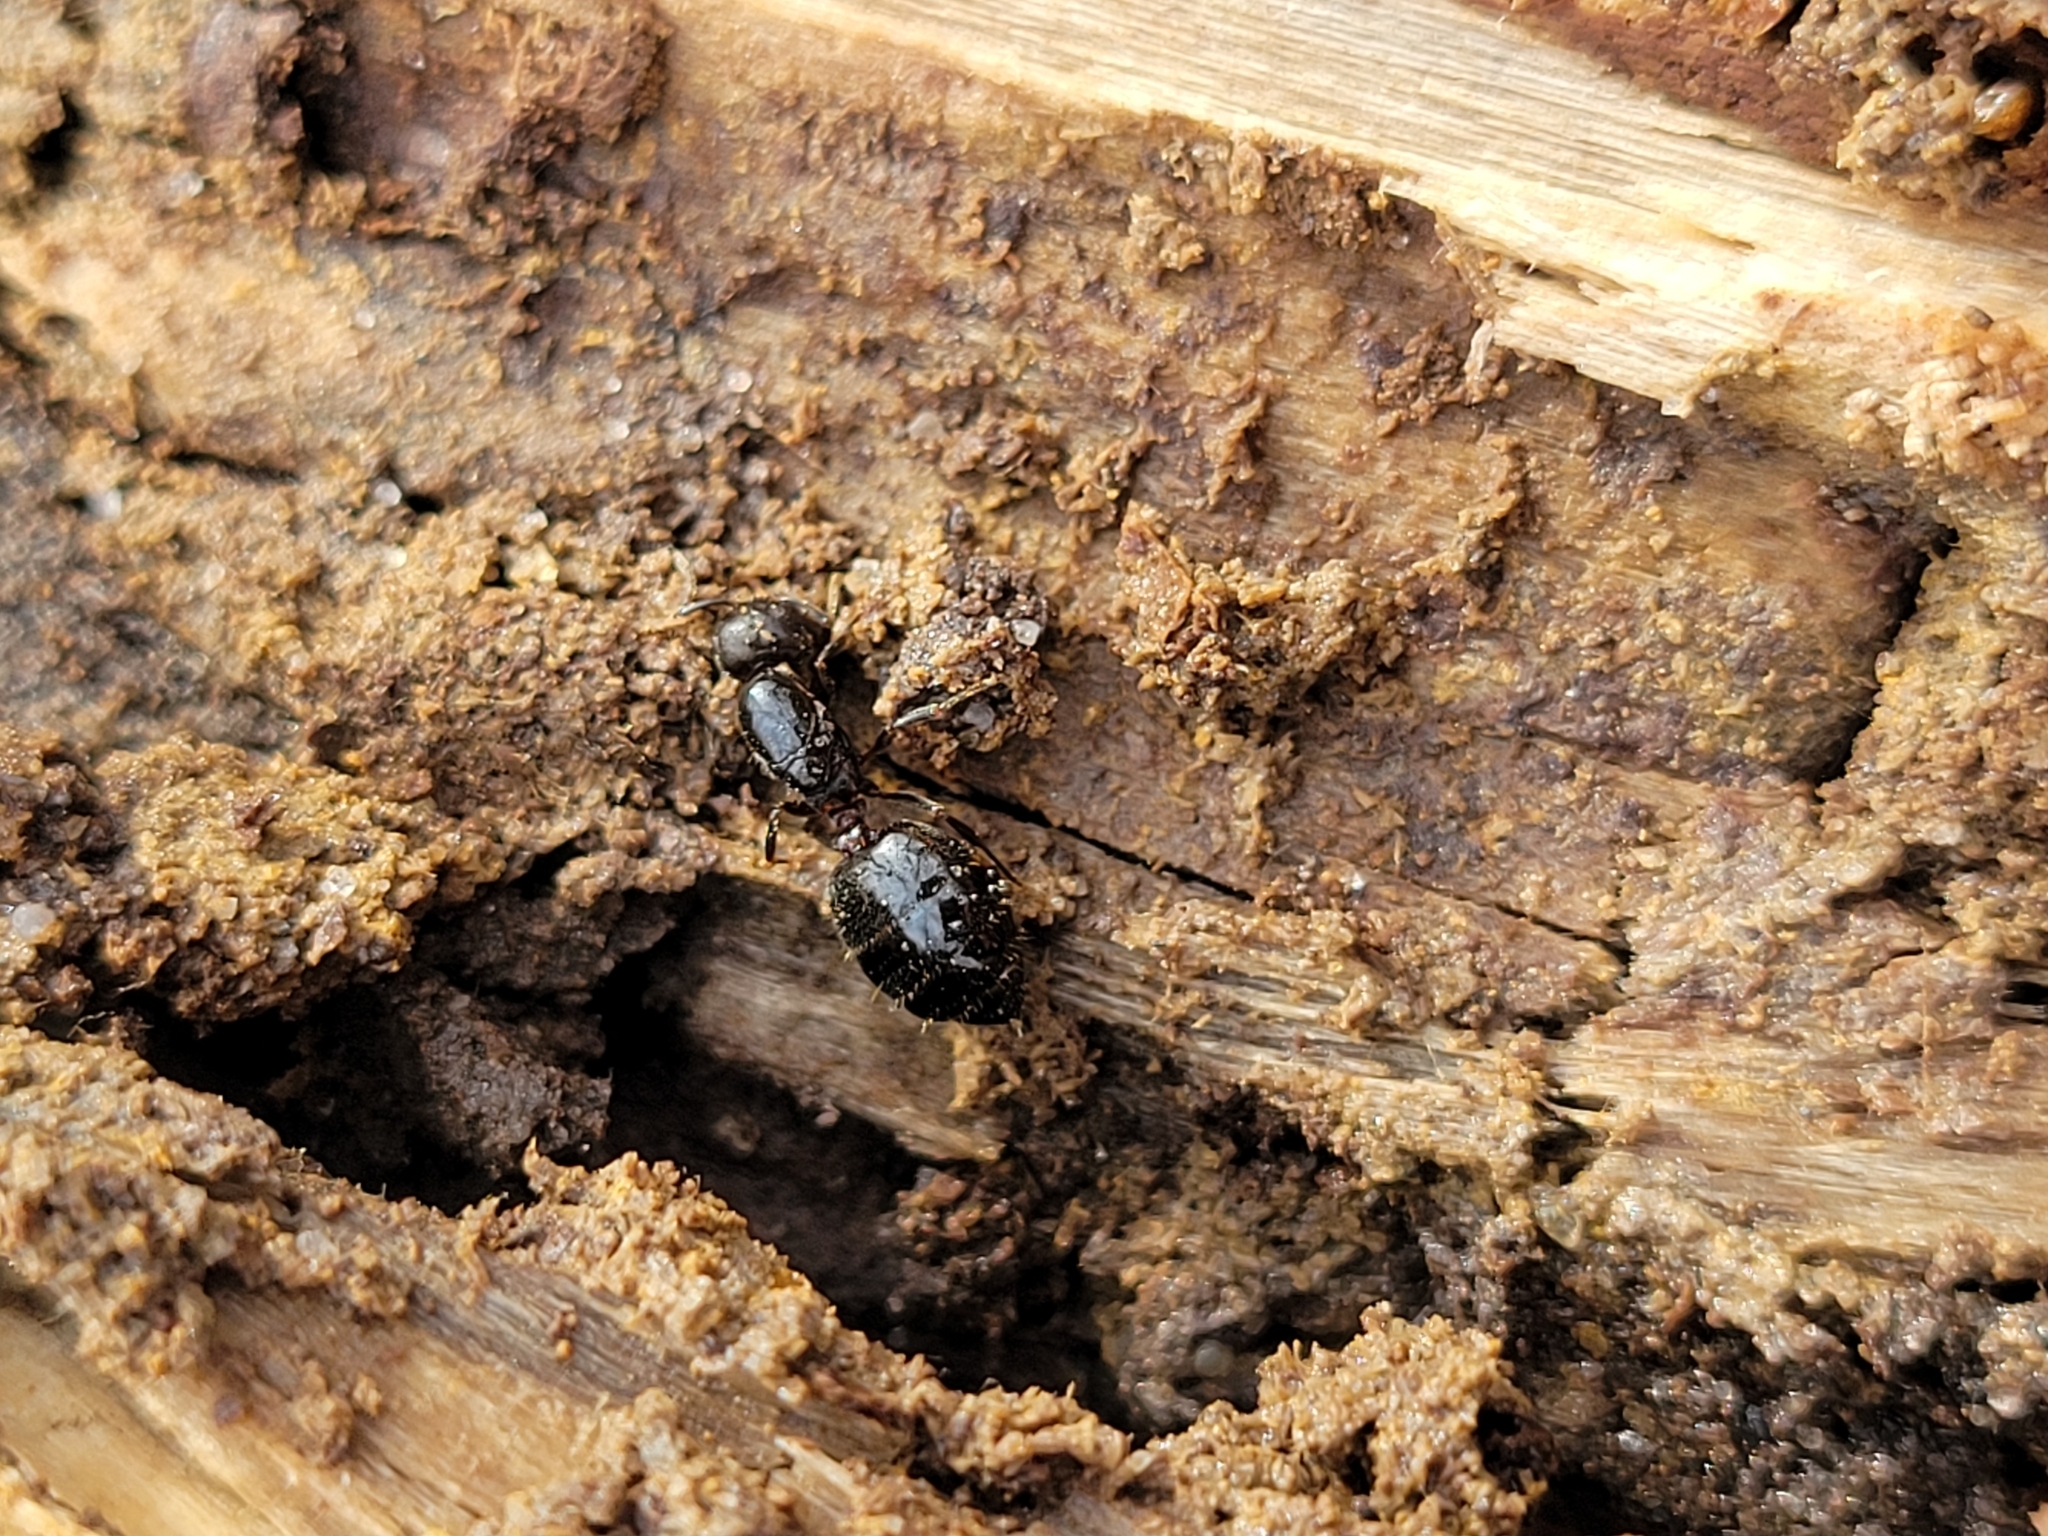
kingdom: Animalia
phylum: Arthropoda
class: Insecta
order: Hymenoptera
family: Formicidae
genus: Crematogaster
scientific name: Crematogaster cerasi
